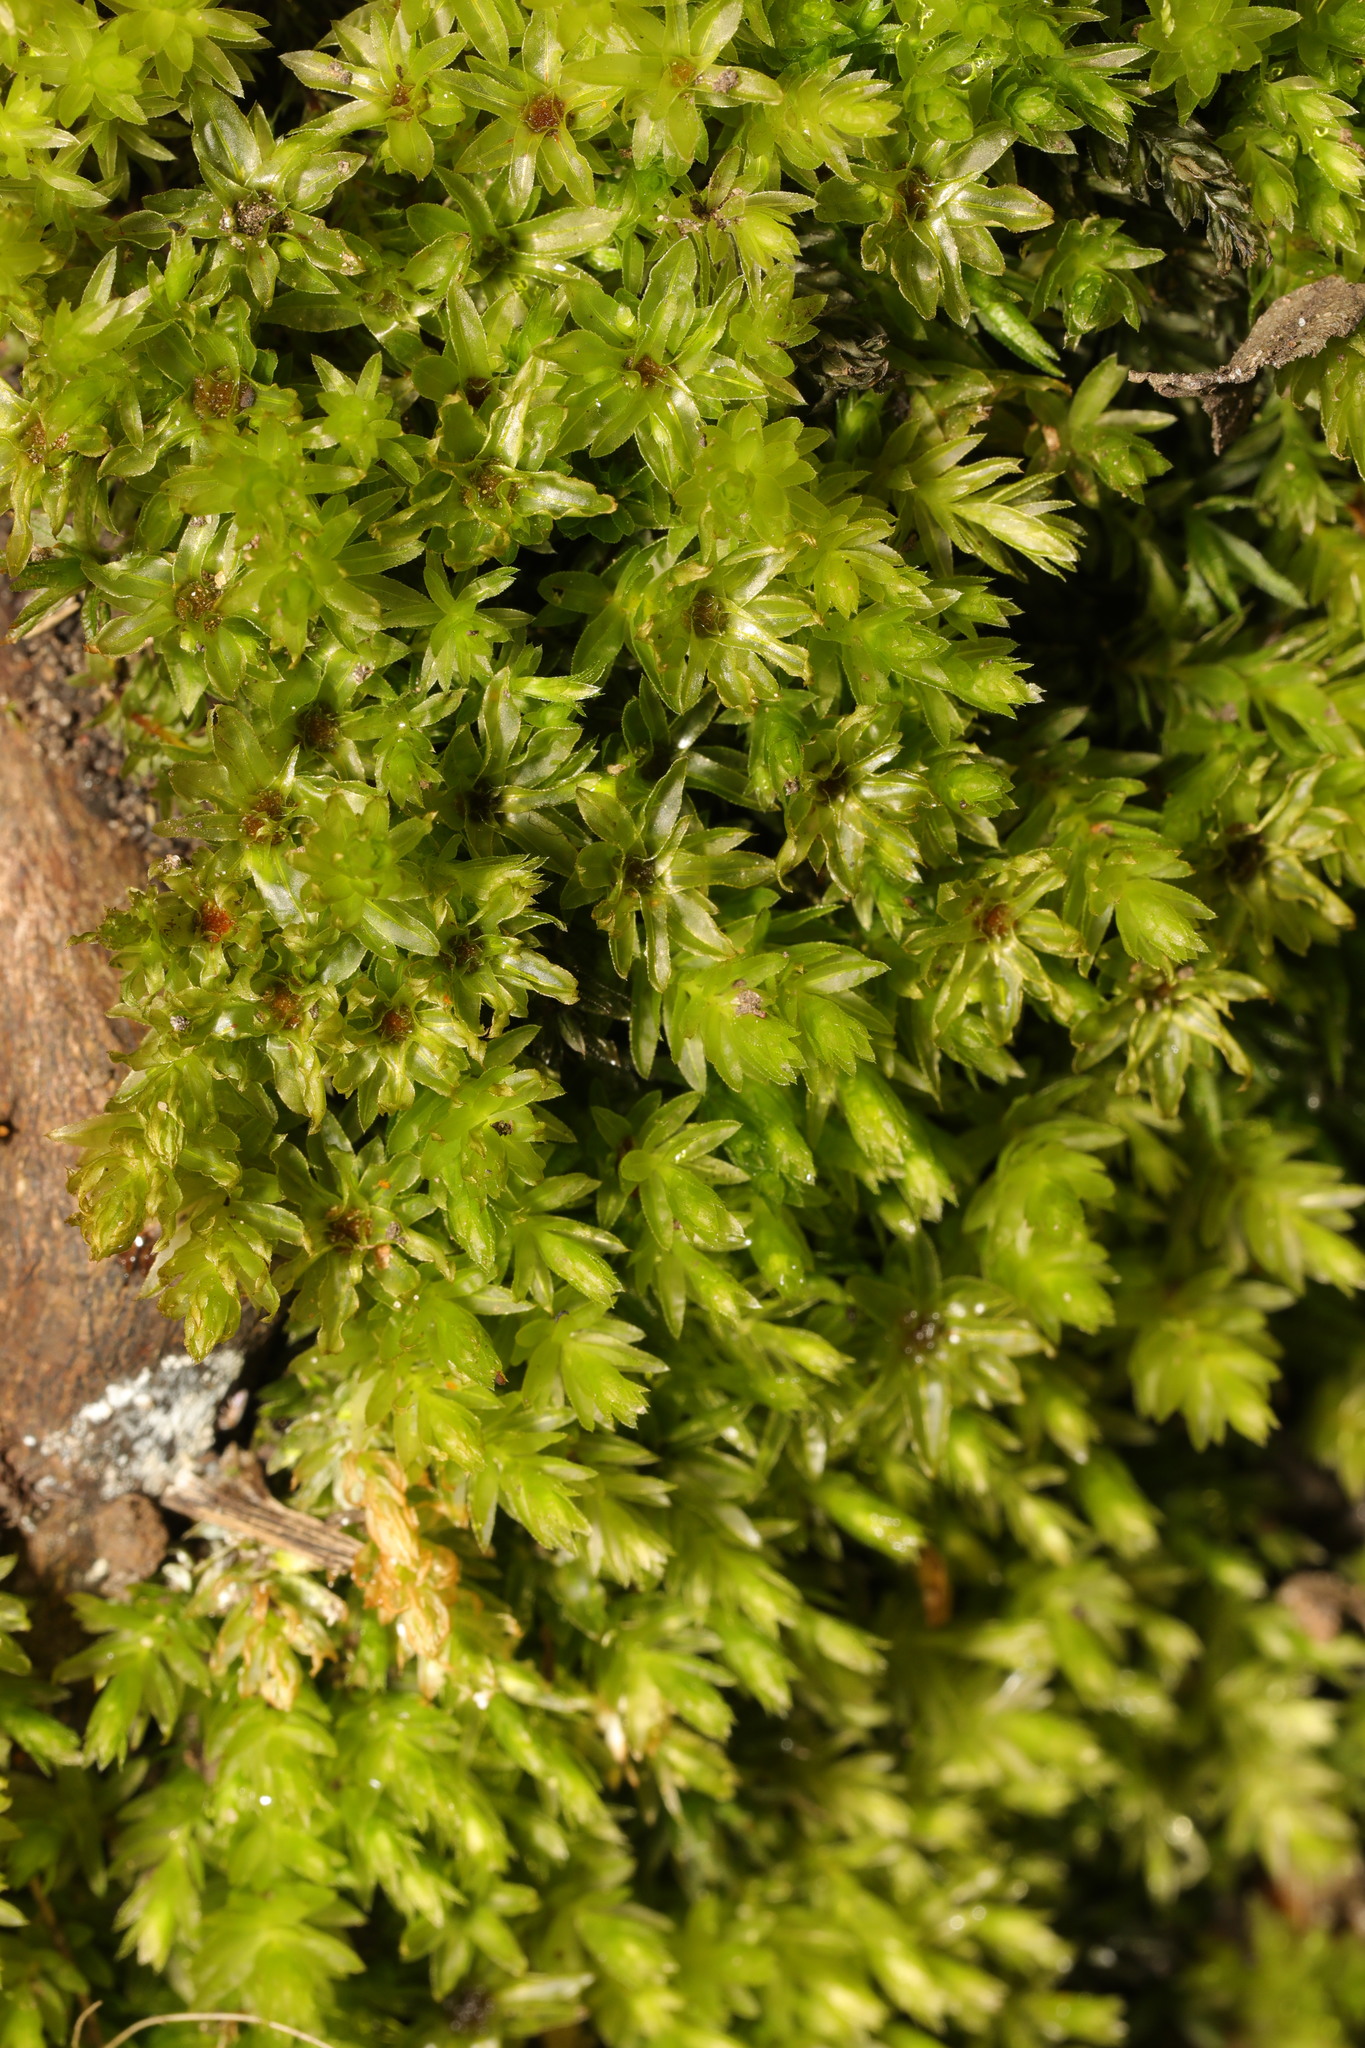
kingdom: Plantae
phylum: Bryophyta
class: Bryopsida
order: Bryales
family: Mniaceae
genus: Mnium
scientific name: Mnium hornum
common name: Swan's-neck leafy moss
